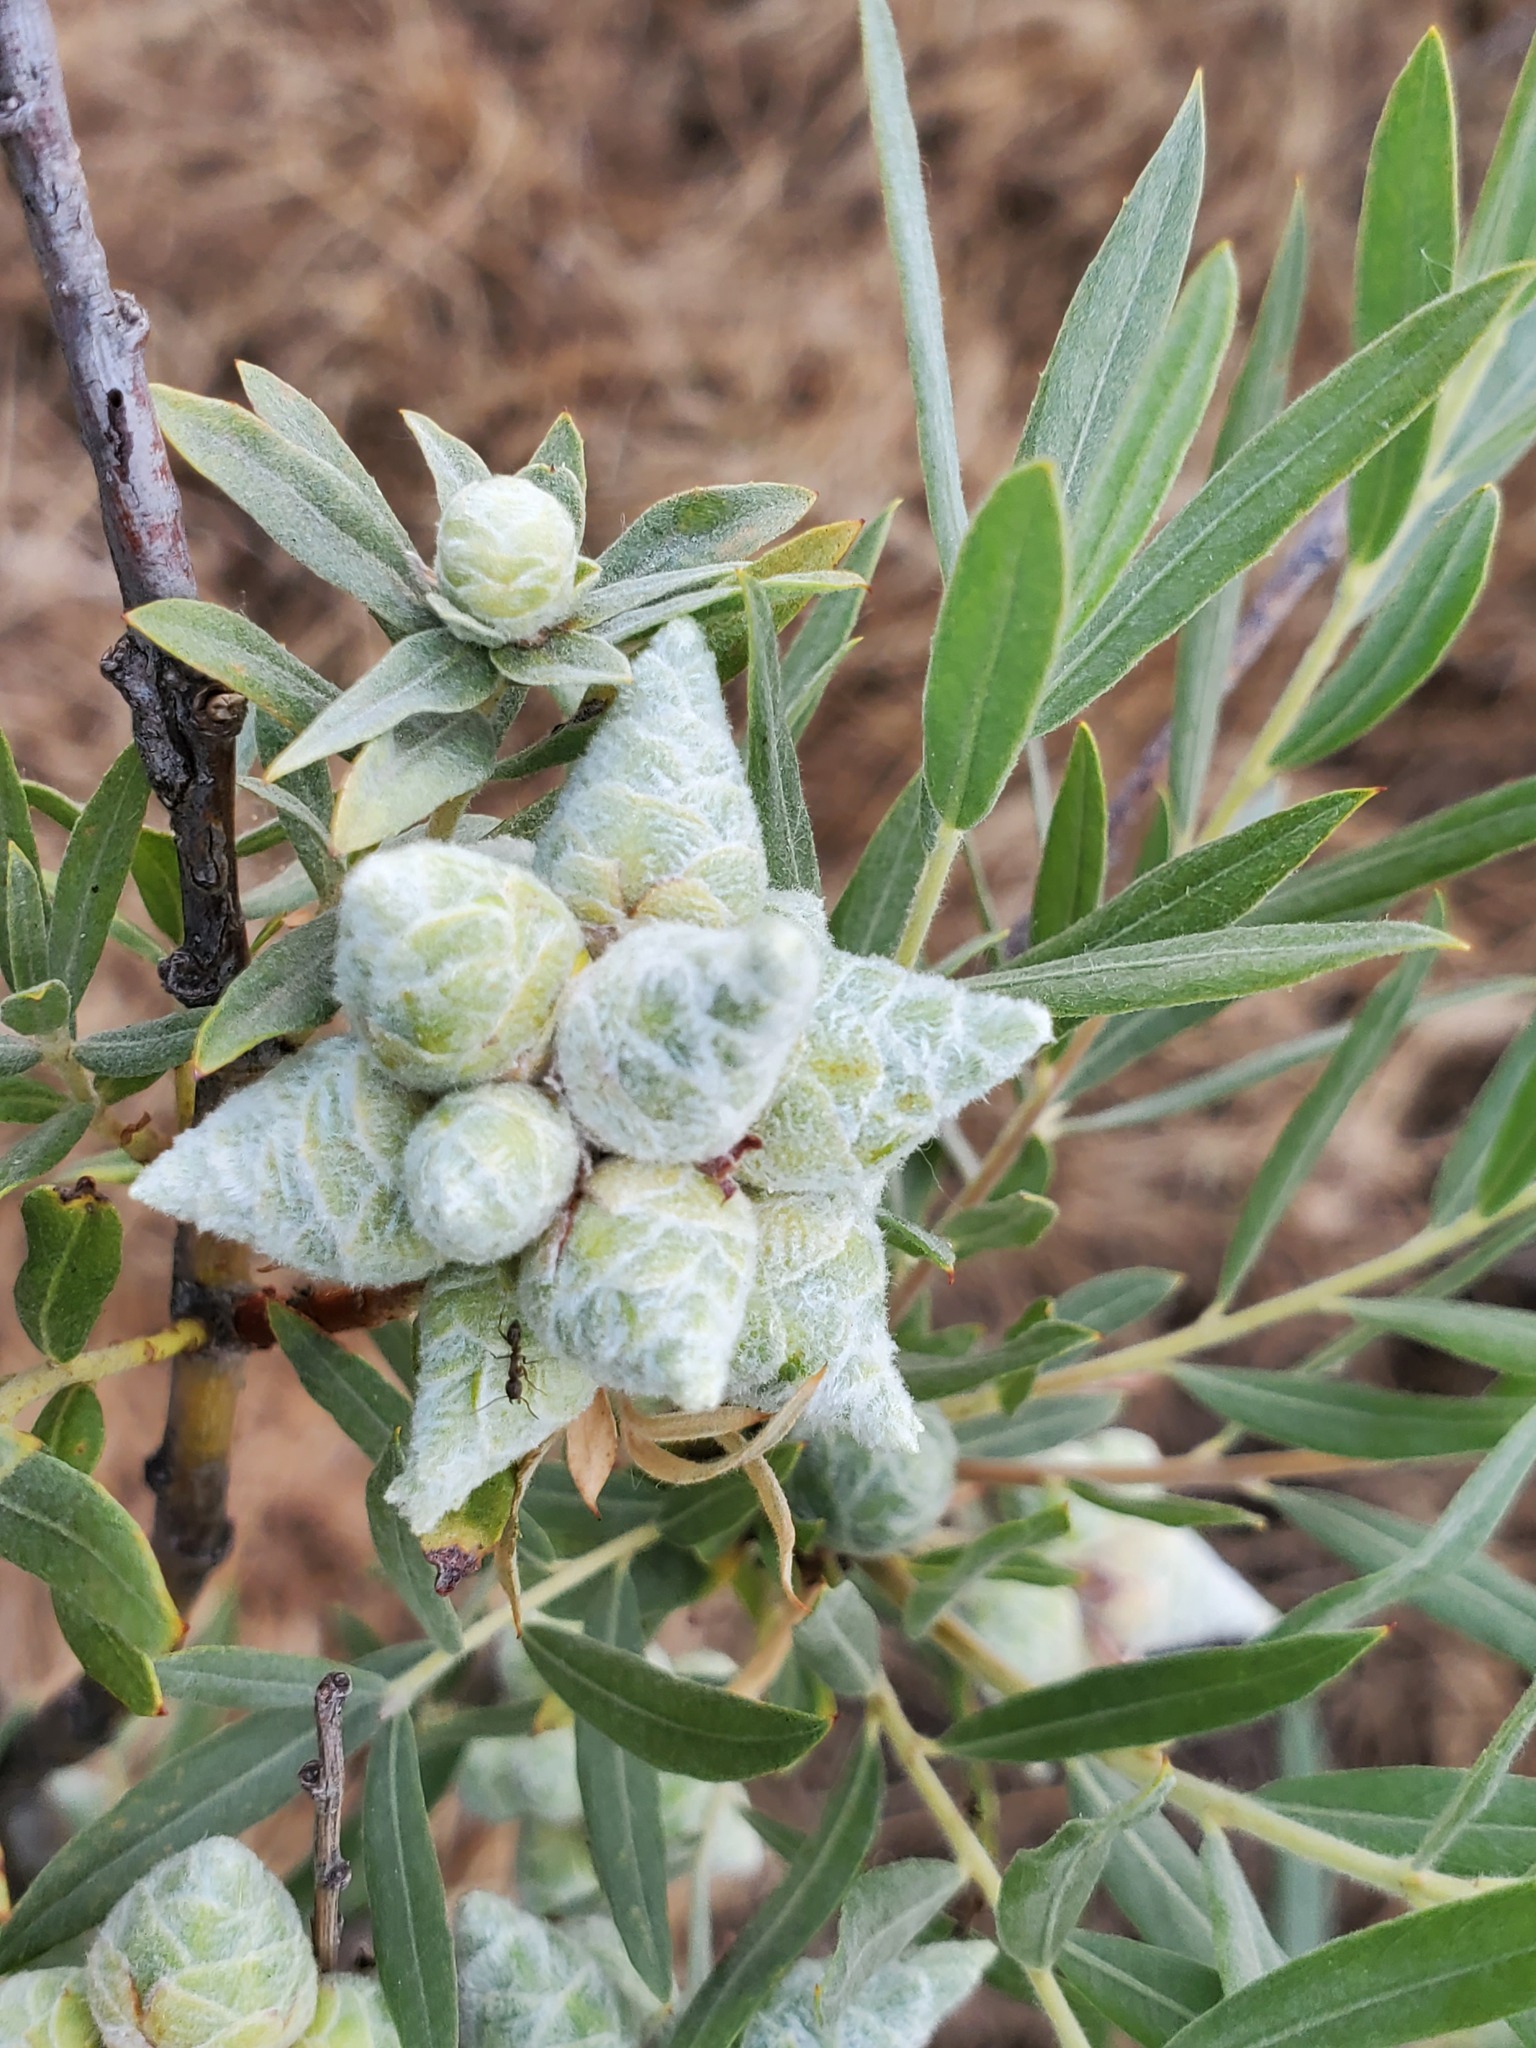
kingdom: Animalia
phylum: Arthropoda
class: Insecta
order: Diptera
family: Cecidomyiidae
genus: Rabdophaga
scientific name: Rabdophaga strobiloides
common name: Willow pinecone gall midge
